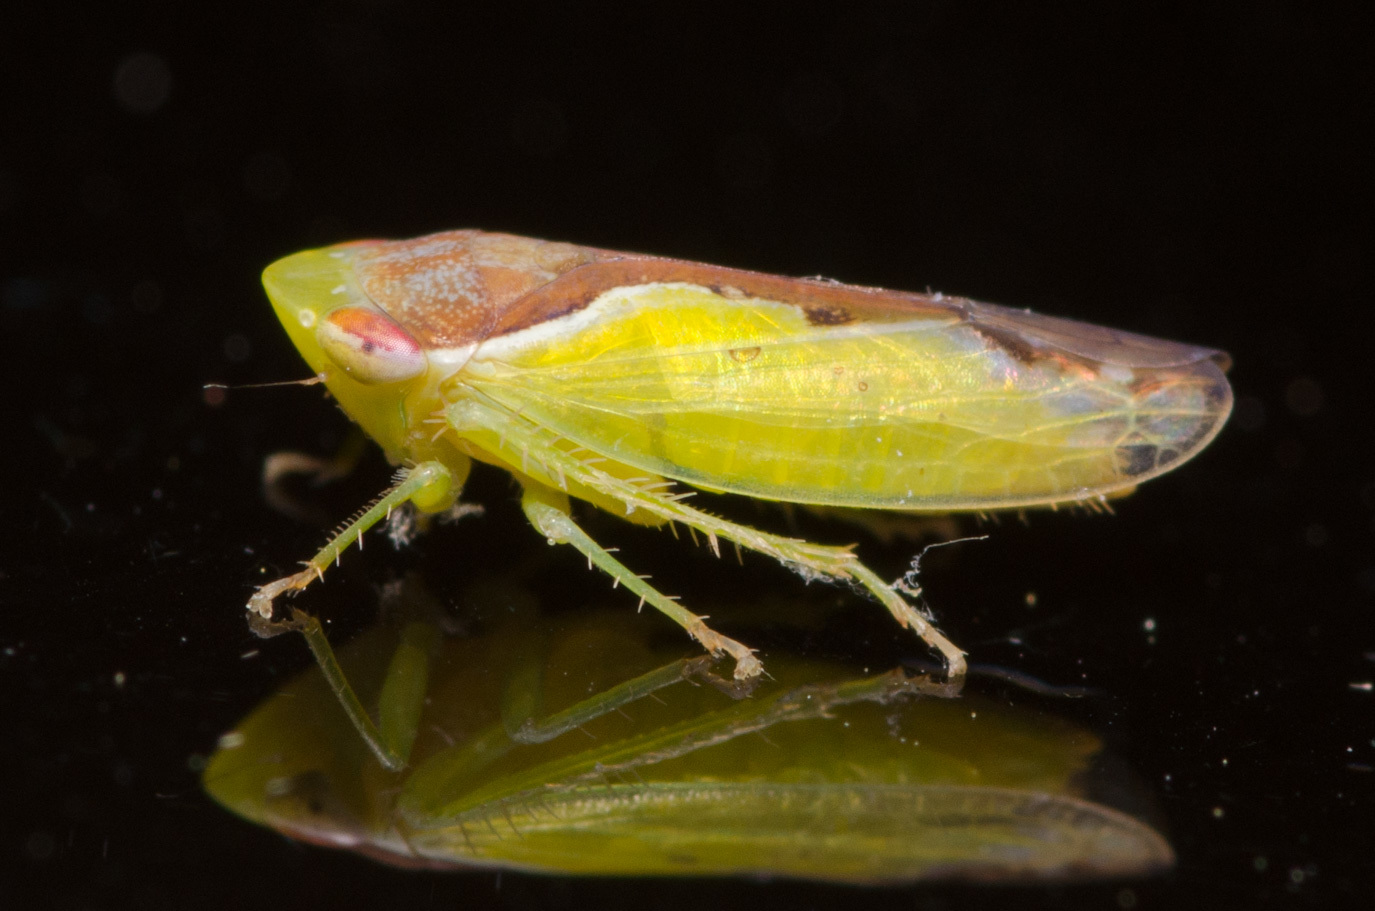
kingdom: Animalia
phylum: Arthropoda
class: Insecta
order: Hemiptera
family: Cicadellidae
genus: Omansobara ing
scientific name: Omansobara ing Omansobara palliolata
